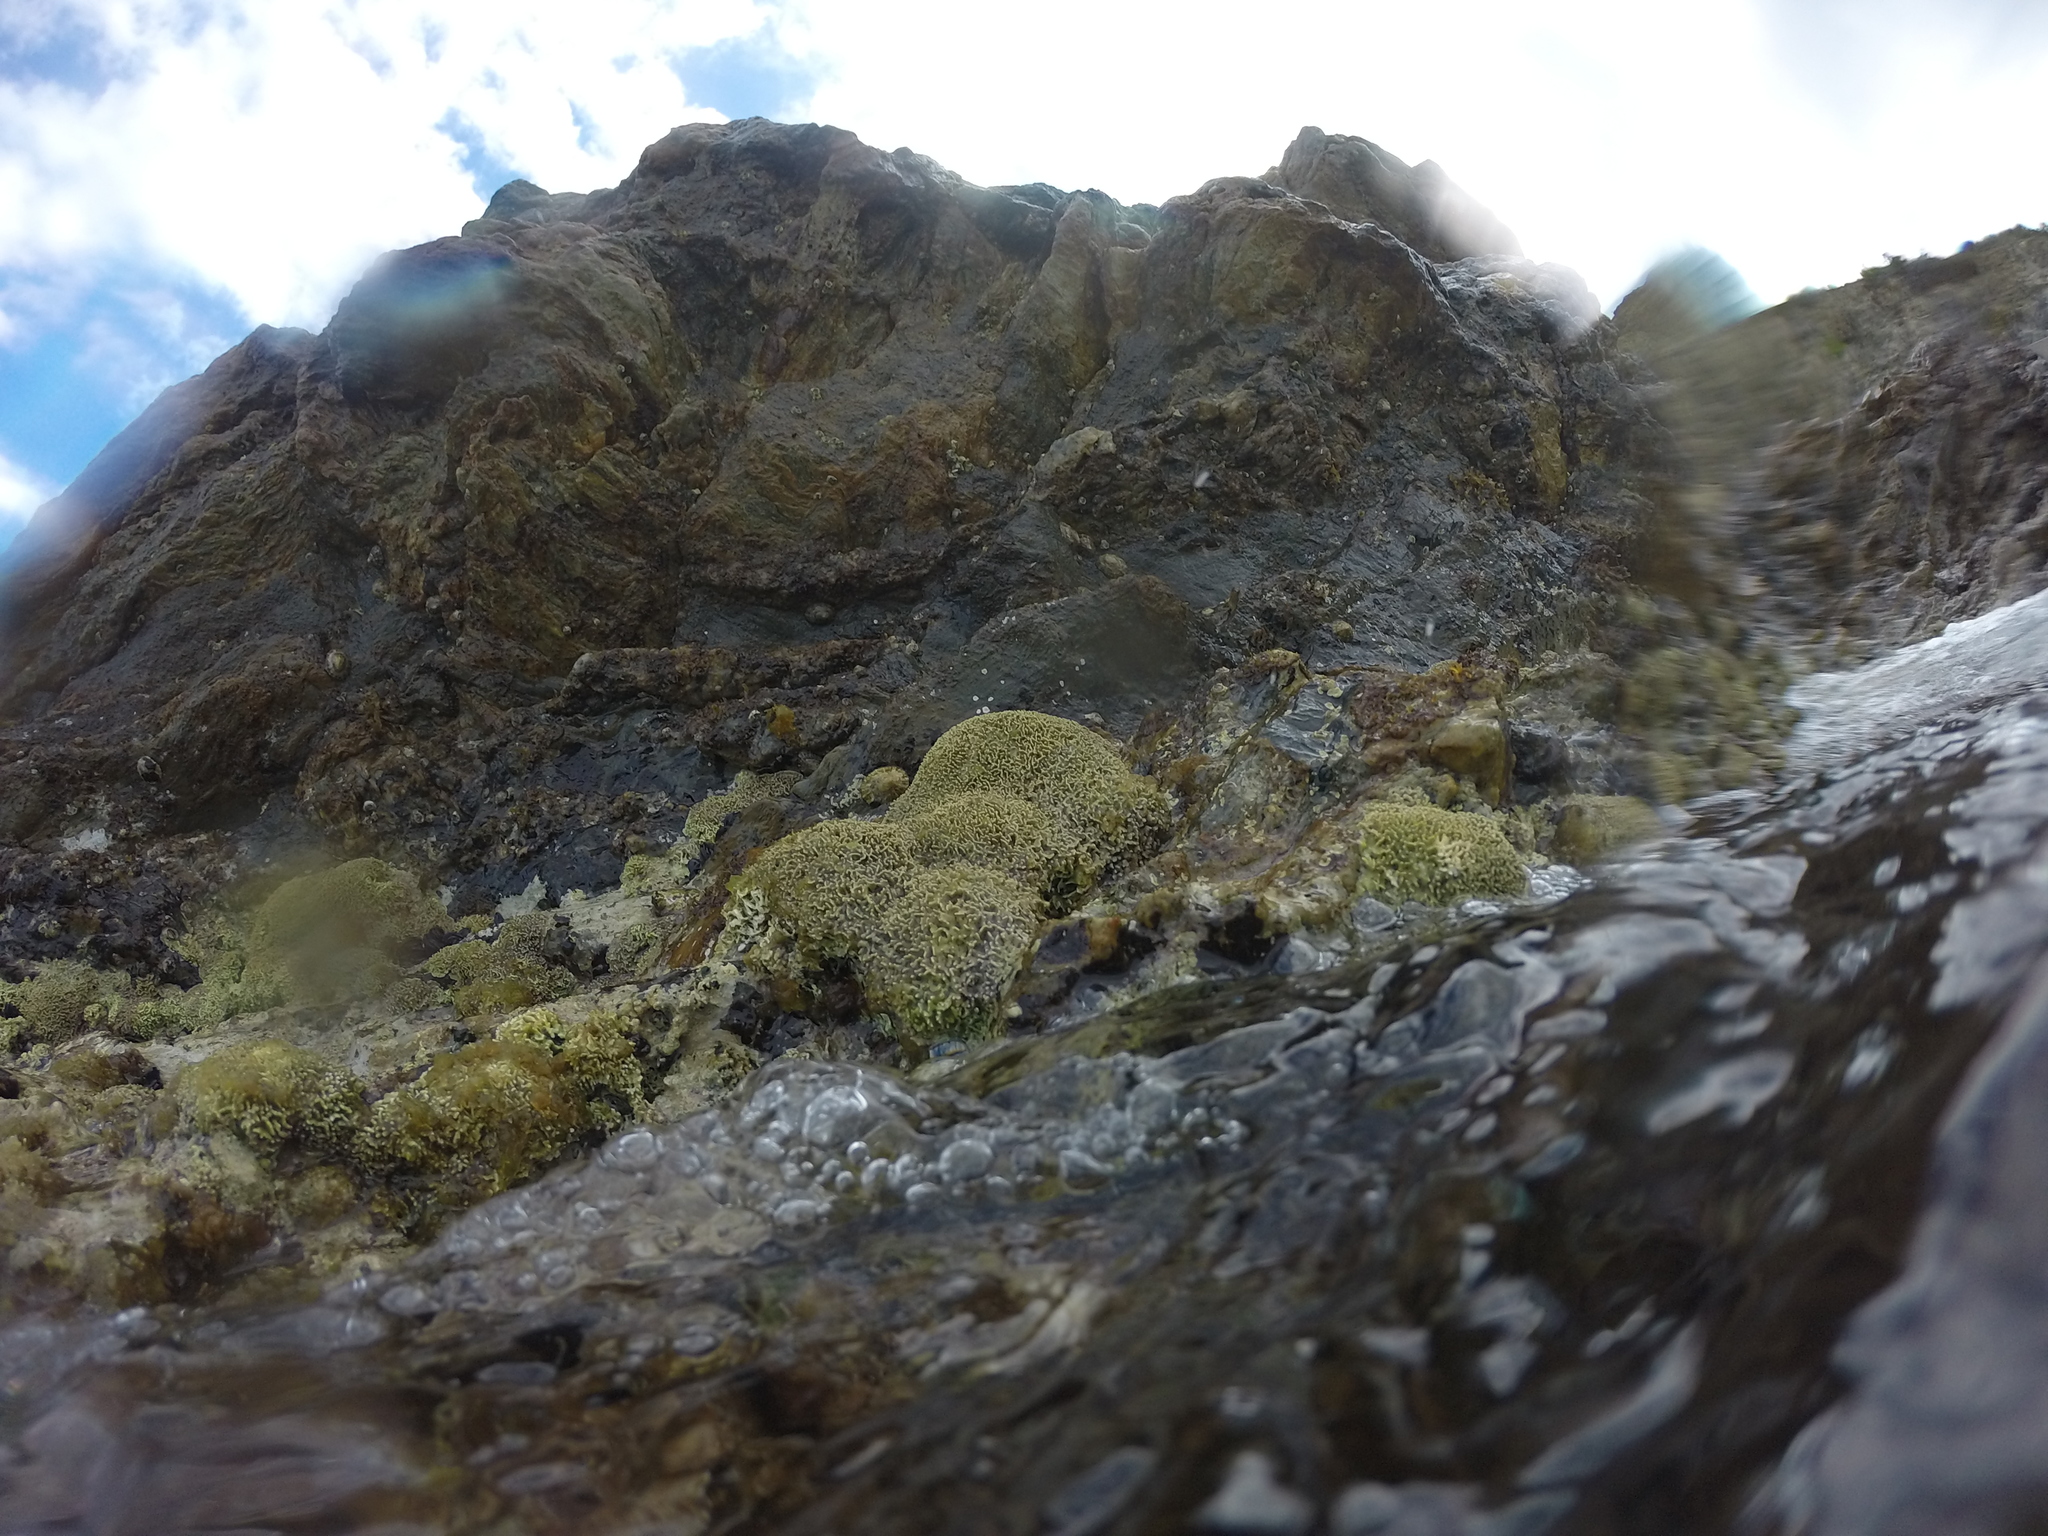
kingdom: Plantae
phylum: Rhodophyta
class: Florideophyceae
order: Corallinales
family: Lithophyllaceae
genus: Lithophyllum
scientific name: Lithophyllum byssoides
